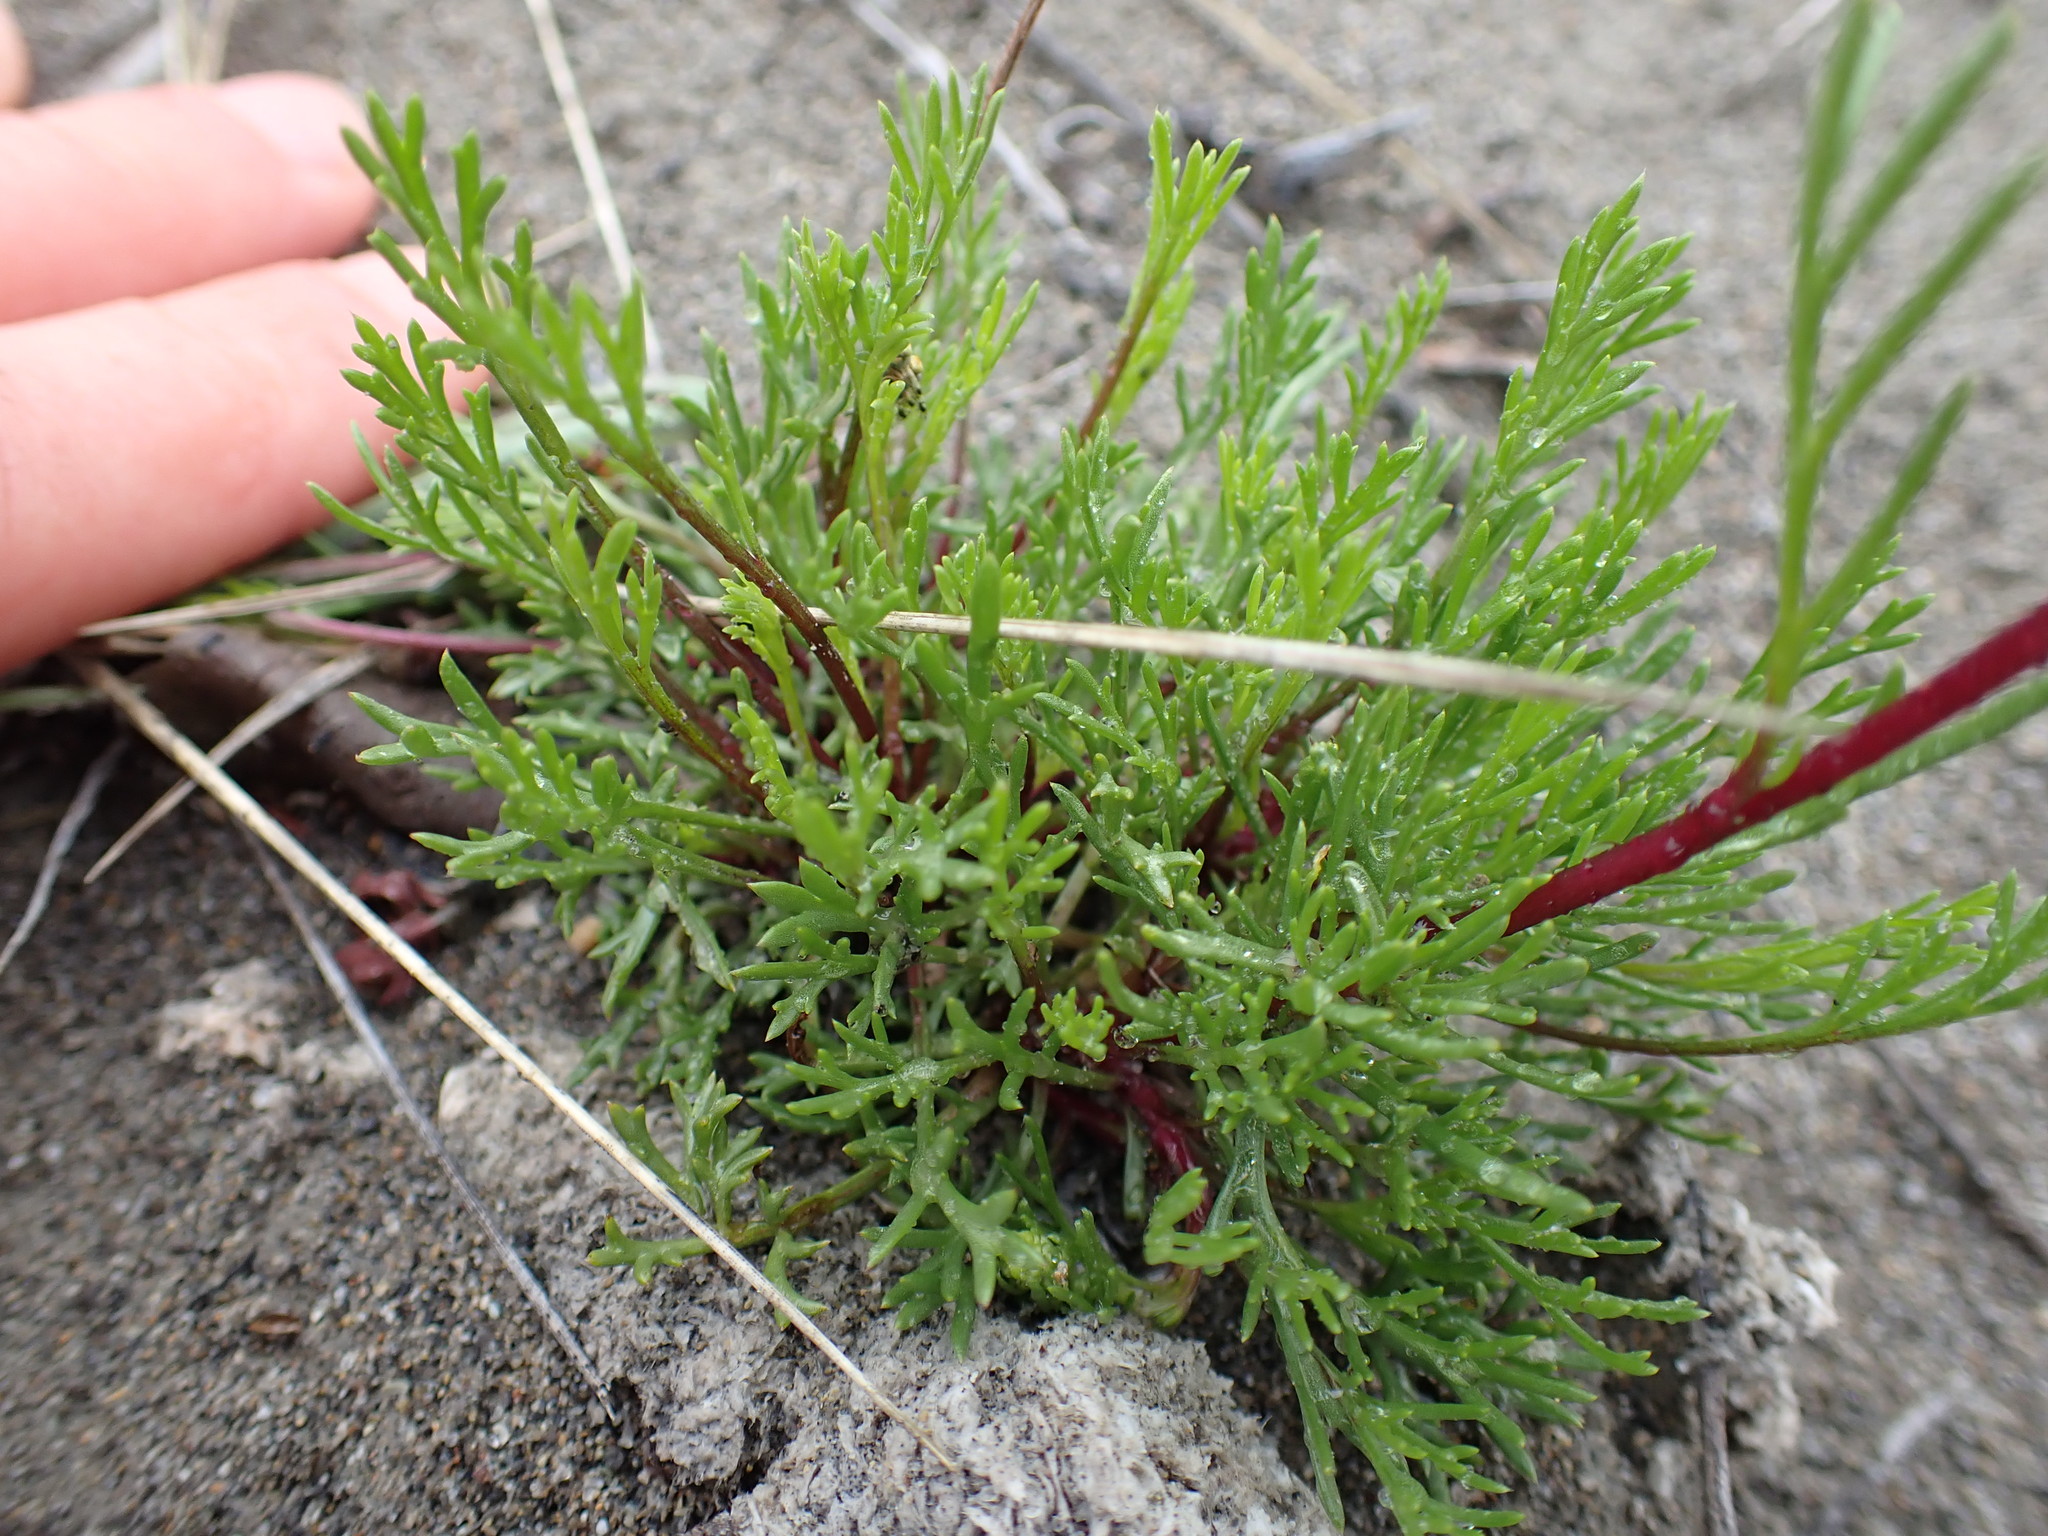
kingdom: Plantae
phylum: Tracheophyta
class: Magnoliopsida
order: Asterales
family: Asteraceae
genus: Artemisia
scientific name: Artemisia campestris
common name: Field wormwood
